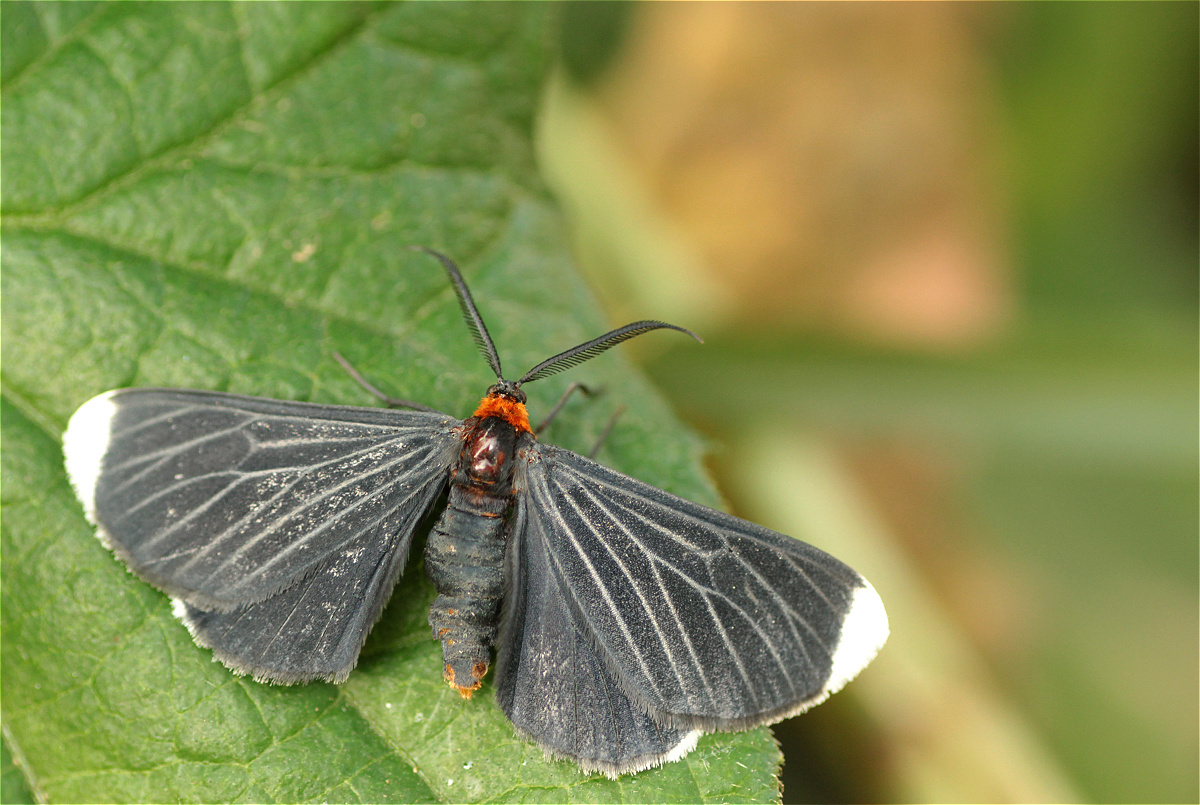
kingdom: Animalia
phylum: Arthropoda
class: Insecta
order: Lepidoptera
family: Geometridae
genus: Melanchroia
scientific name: Melanchroia chephise
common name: White-tipped black
